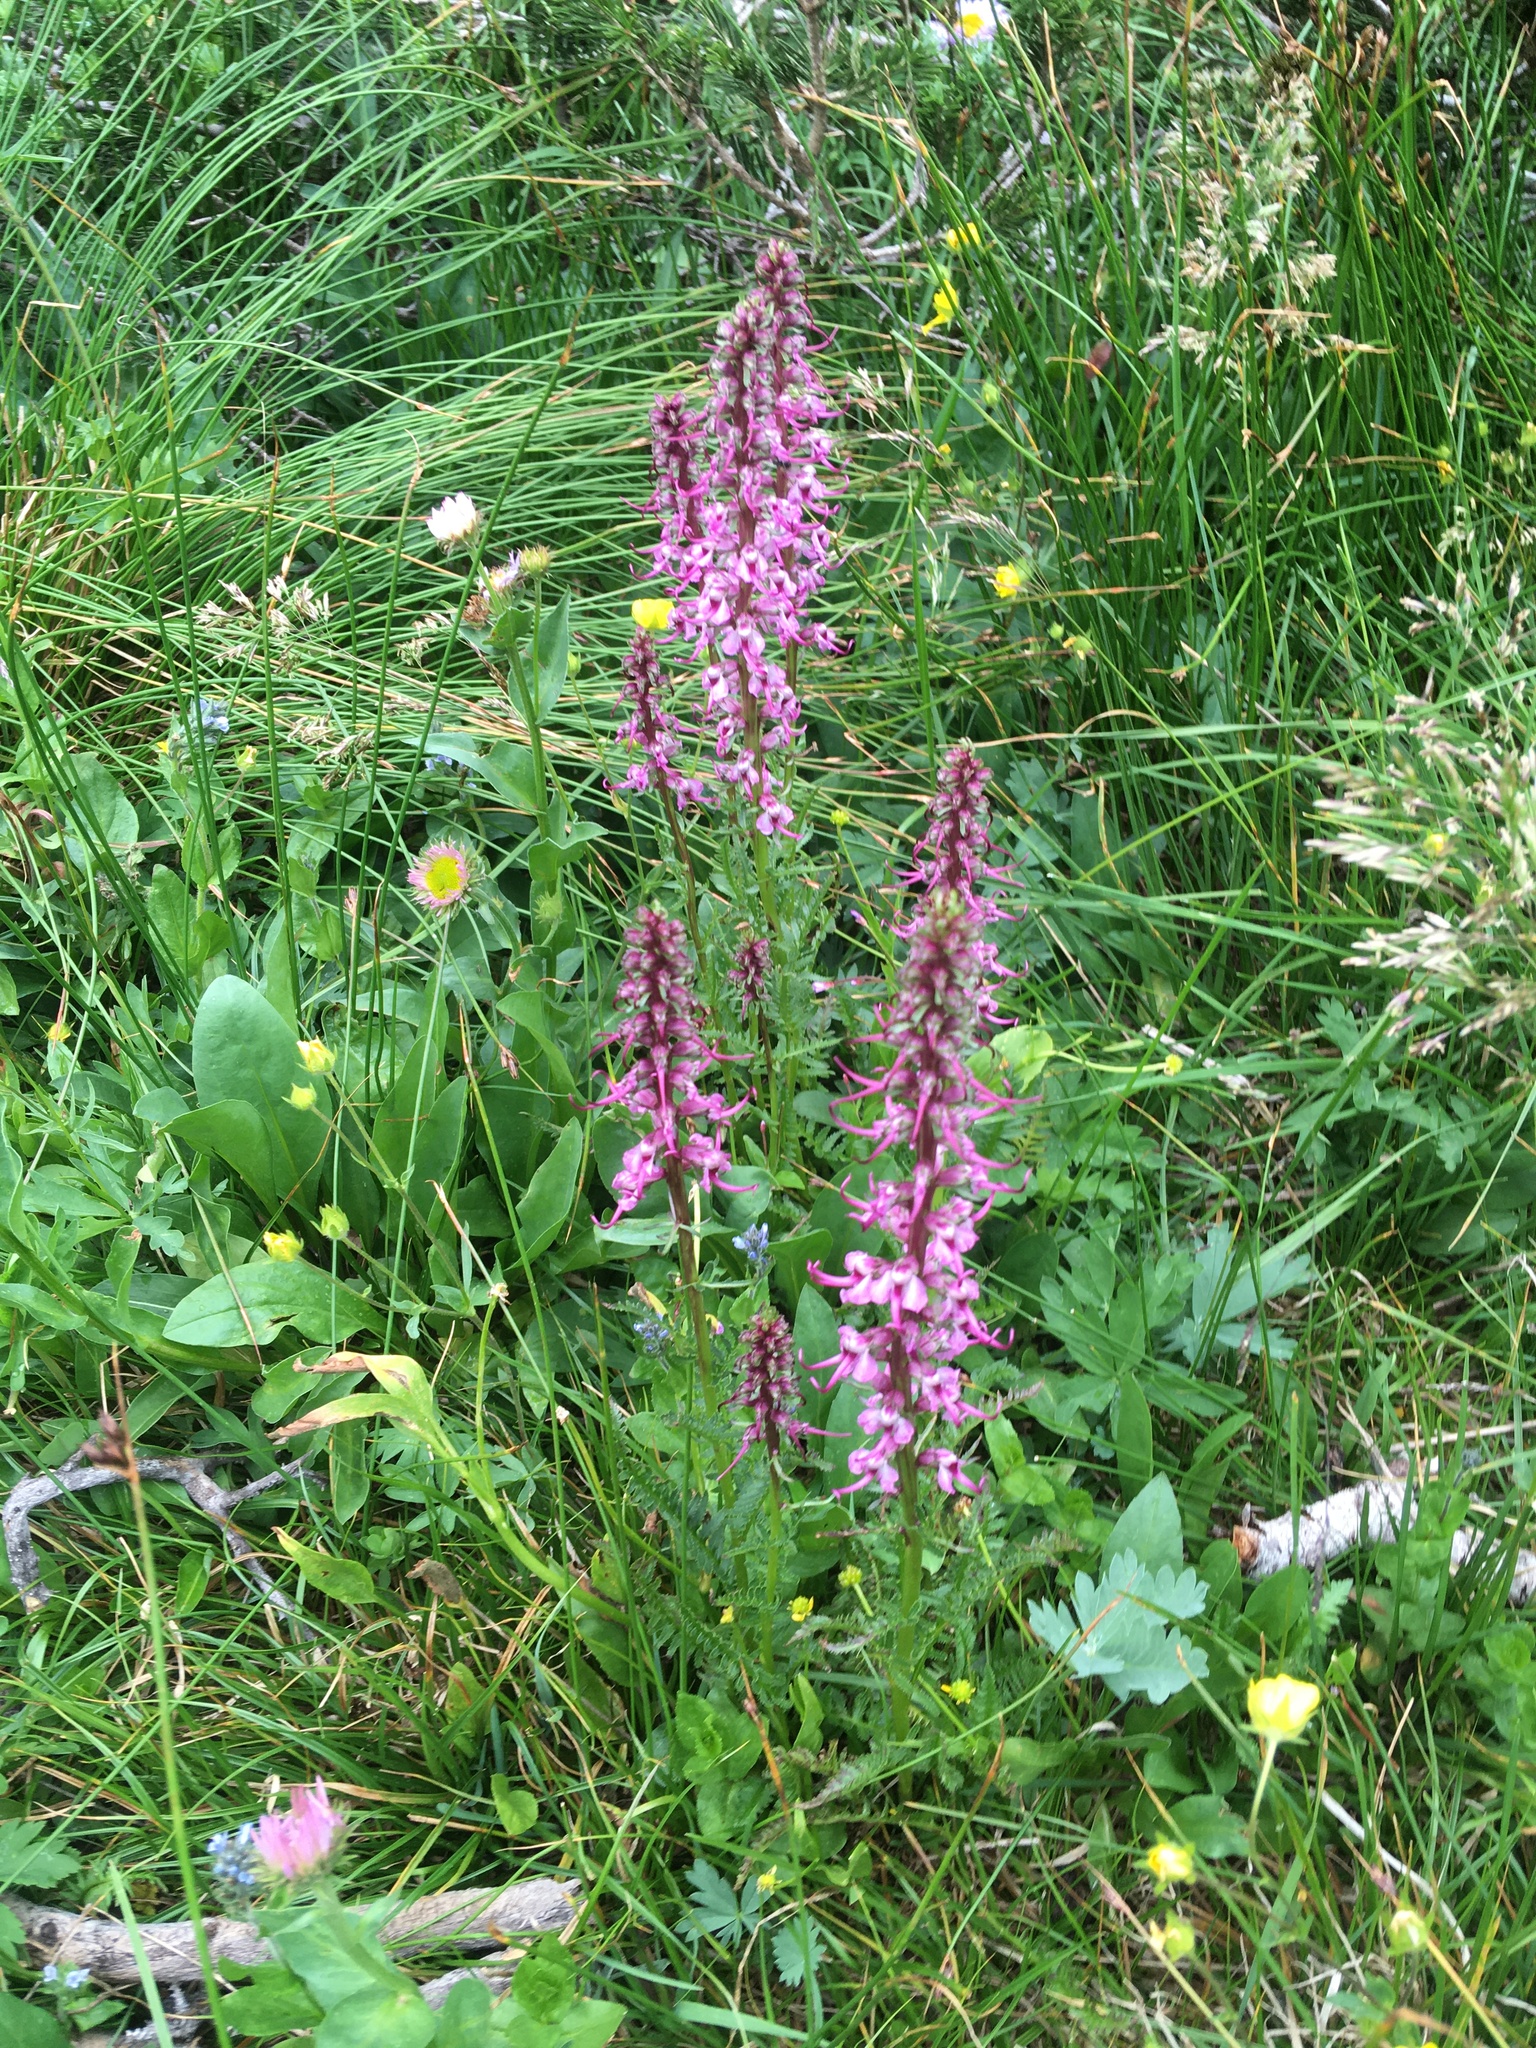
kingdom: Plantae
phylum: Tracheophyta
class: Magnoliopsida
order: Lamiales
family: Orobanchaceae
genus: Pedicularis
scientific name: Pedicularis groenlandica
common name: Elephant's-head
